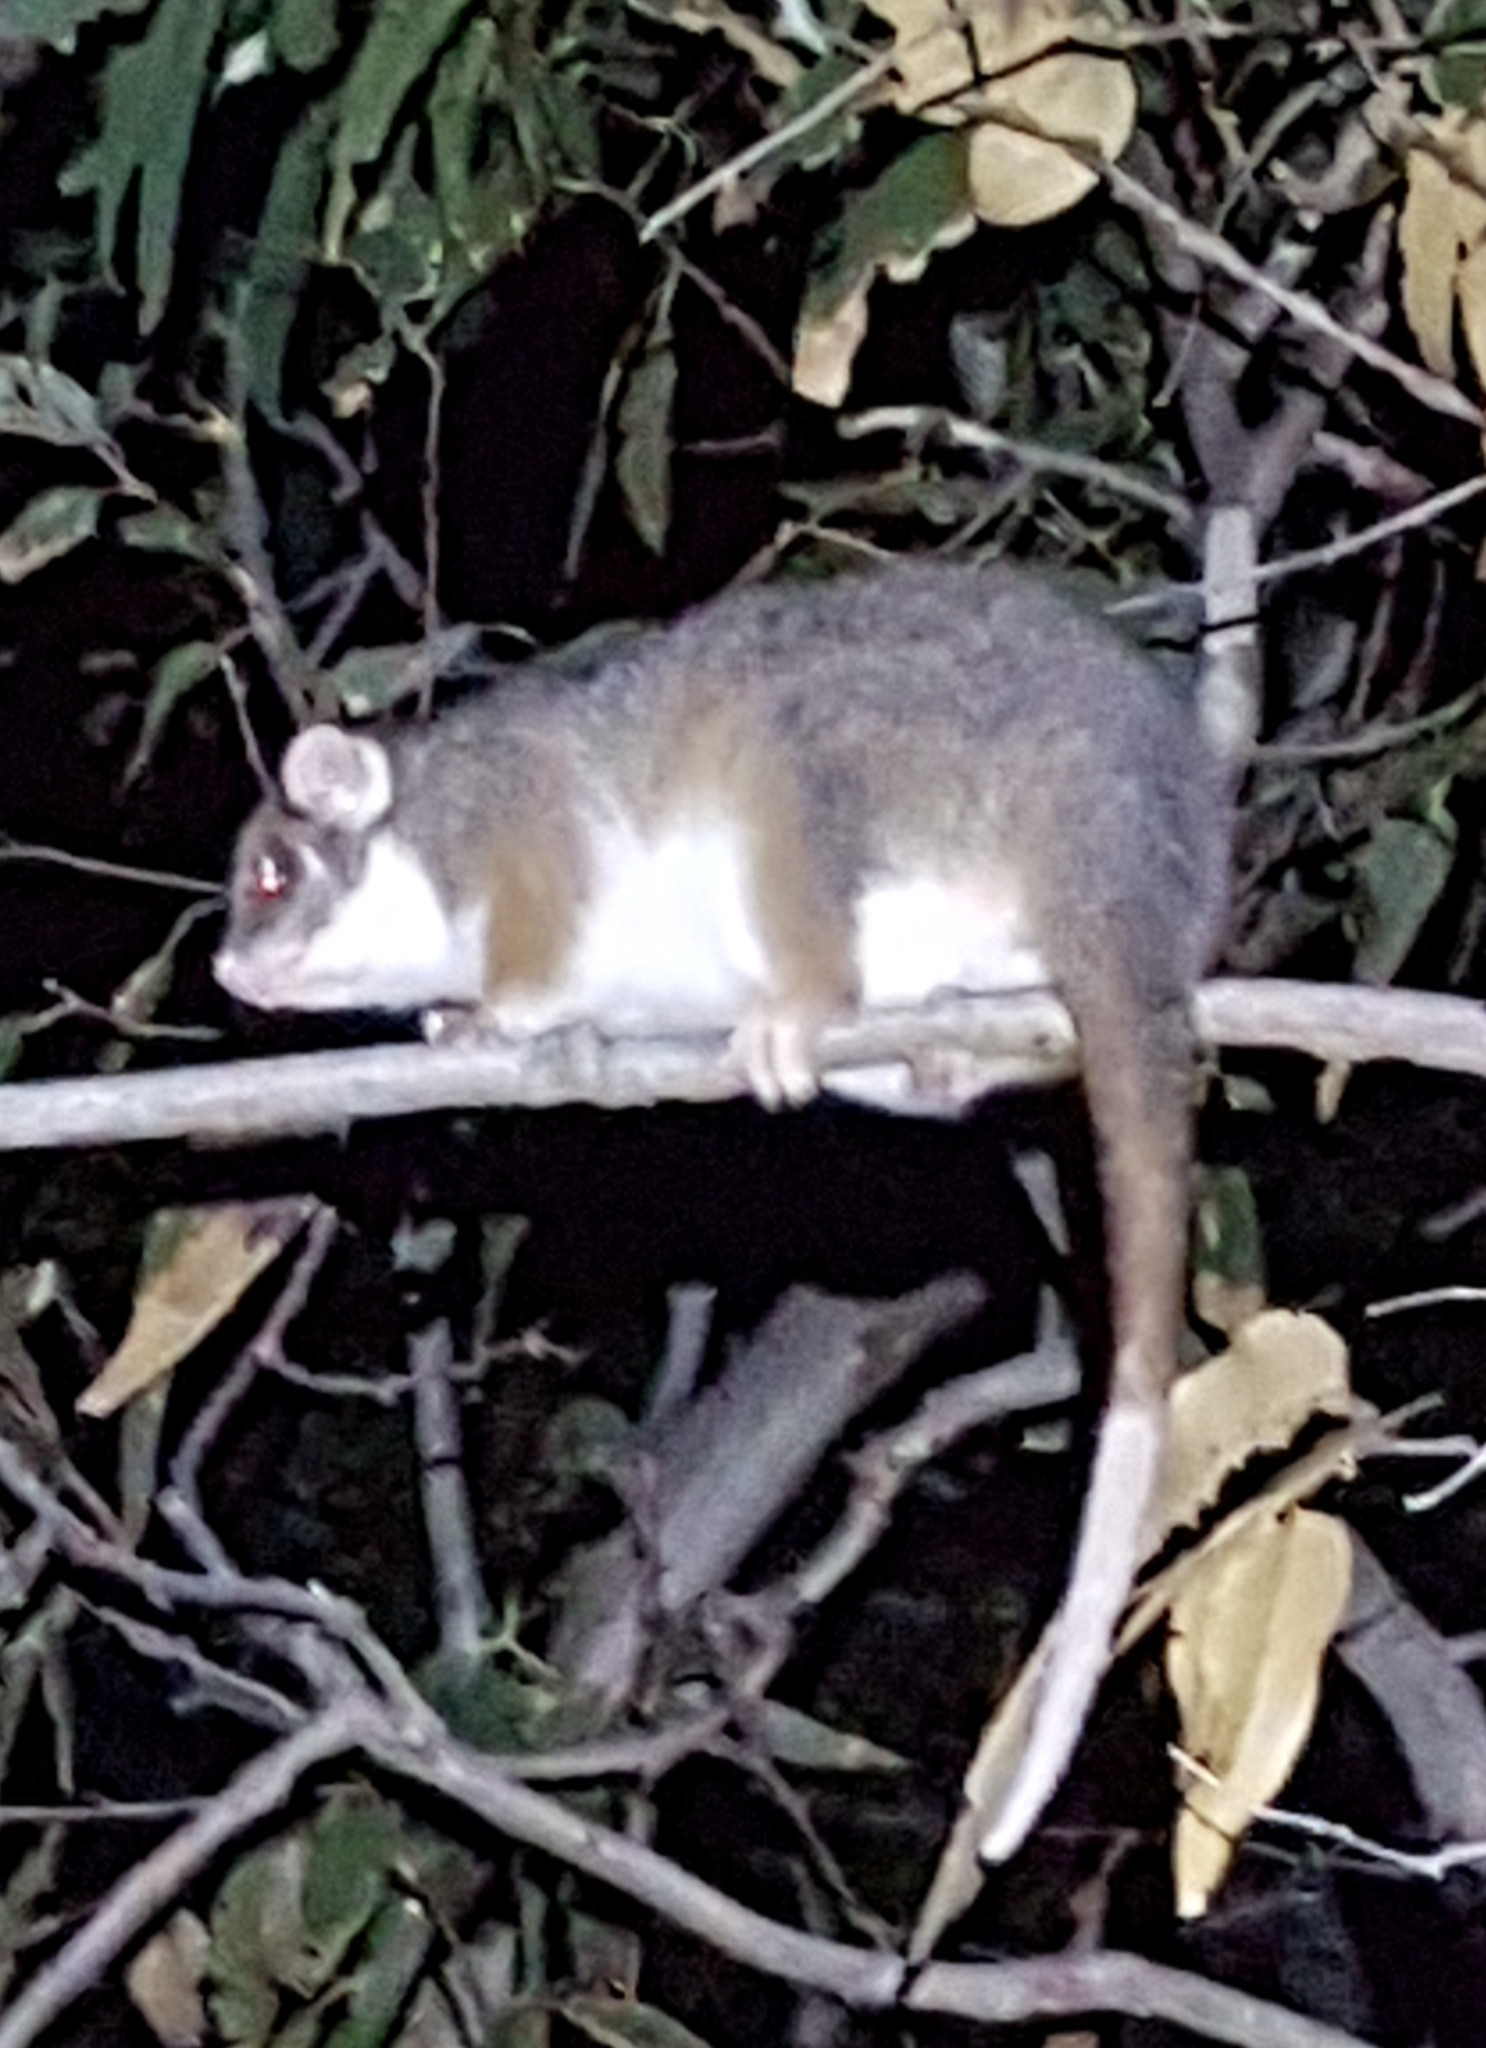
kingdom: Animalia
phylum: Chordata
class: Mammalia
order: Diprotodontia
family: Pseudocheiridae
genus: Pseudocheirus
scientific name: Pseudocheirus peregrinus
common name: Common ringtail possum
